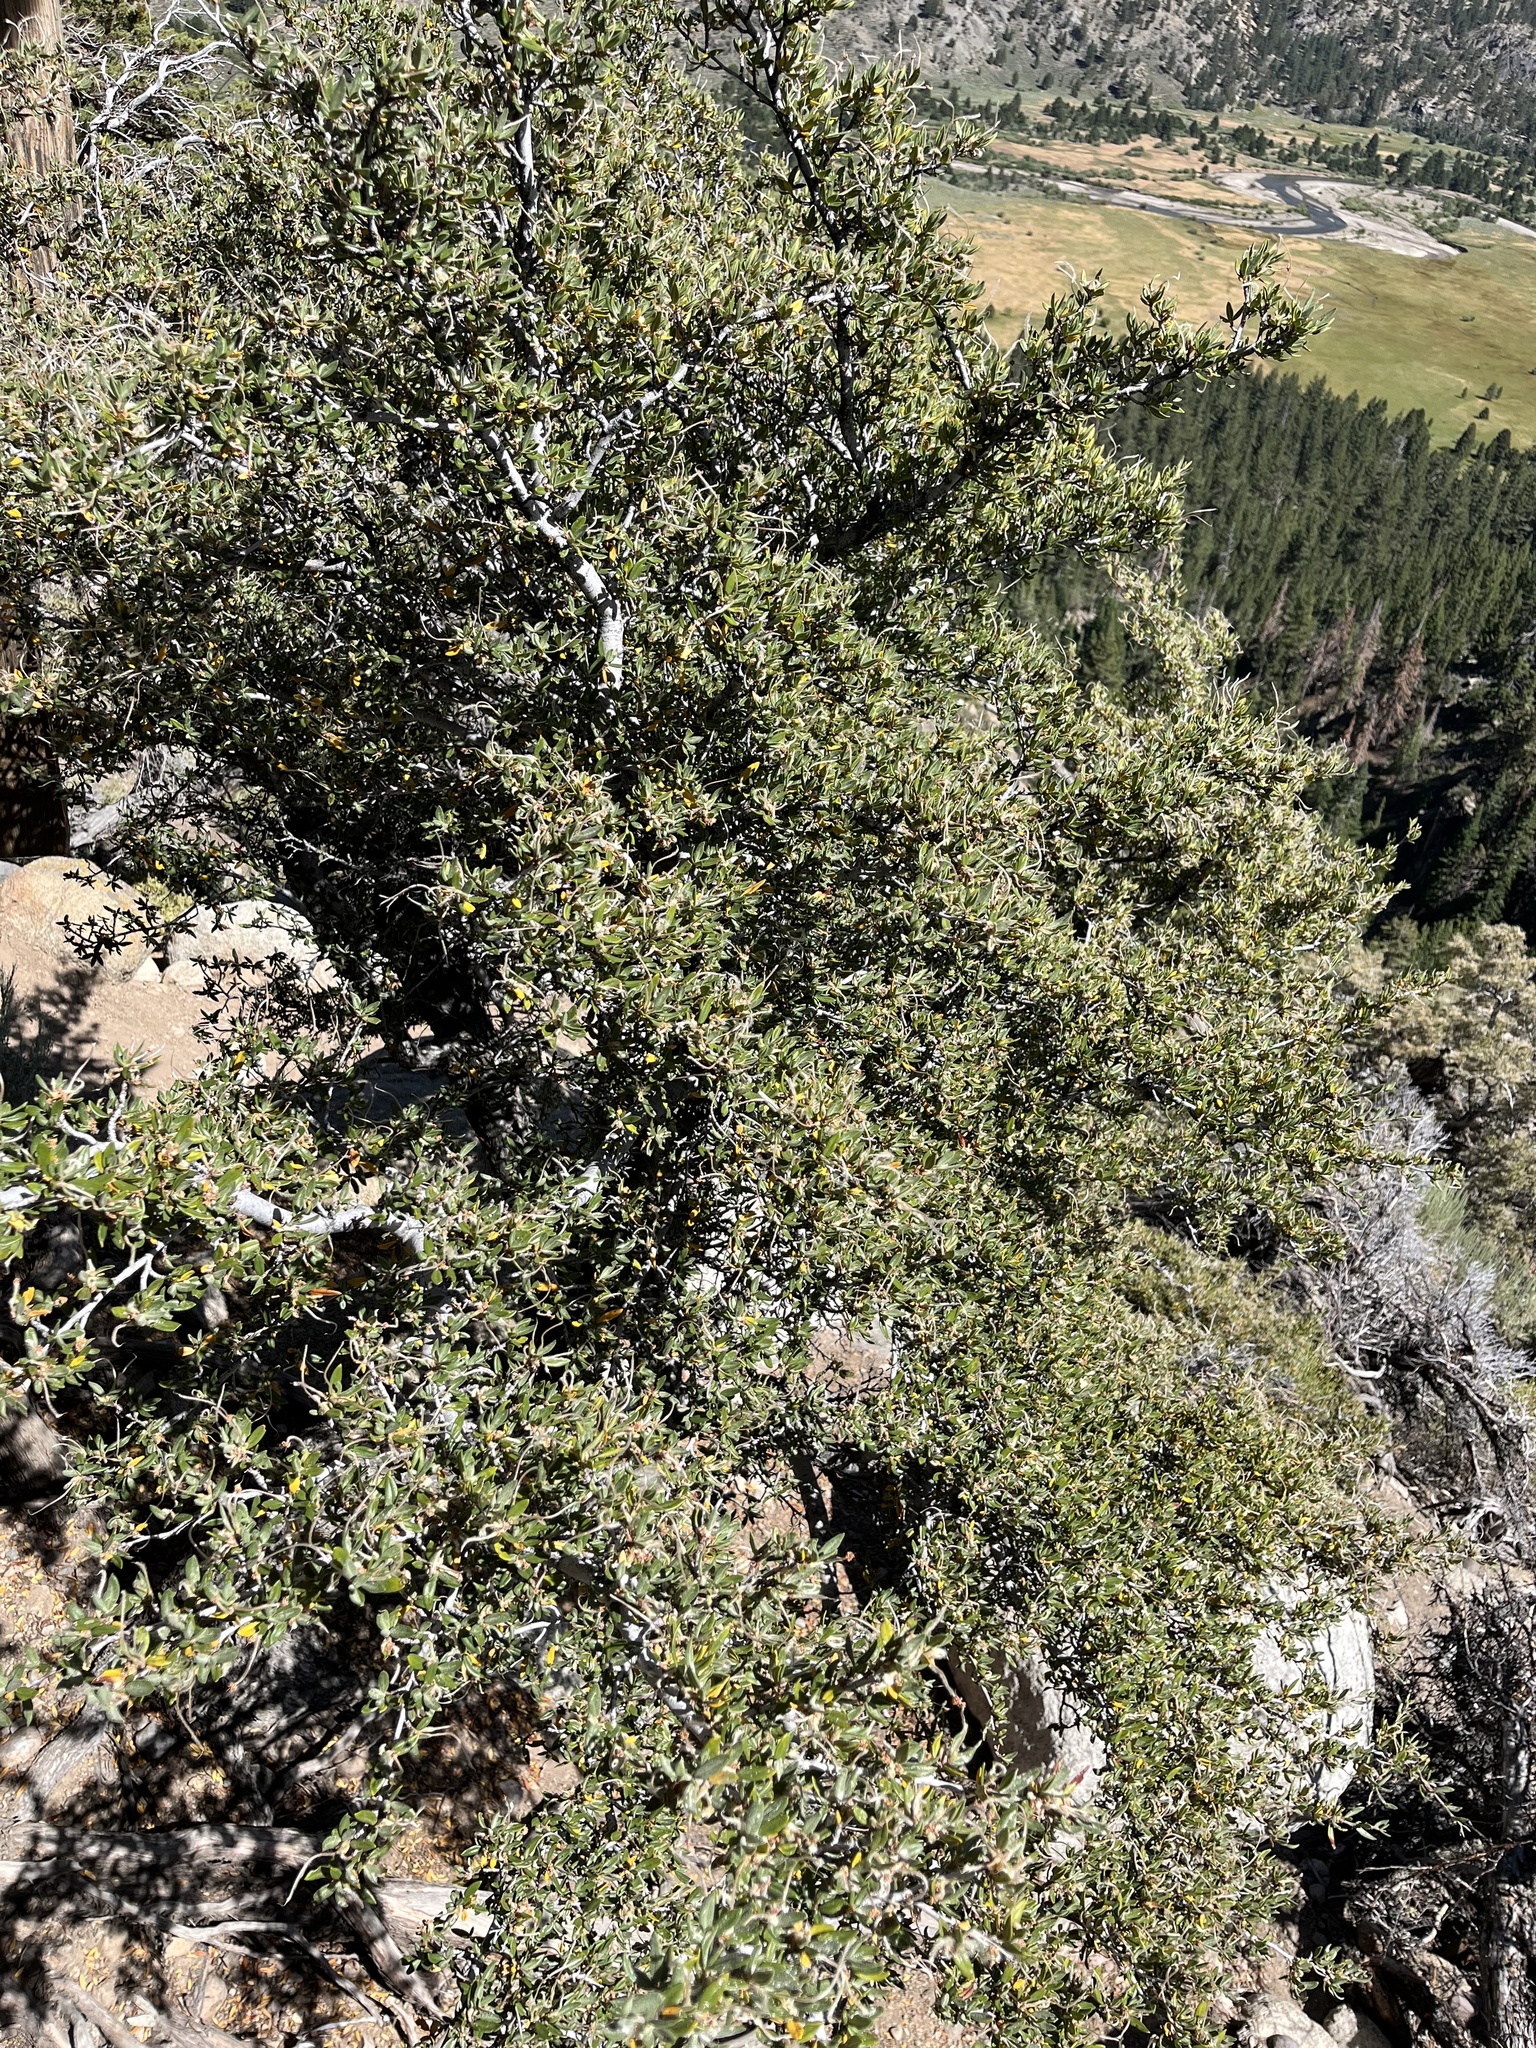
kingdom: Plantae
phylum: Tracheophyta
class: Magnoliopsida
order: Rosales
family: Rosaceae
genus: Cercocarpus
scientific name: Cercocarpus ledifolius
